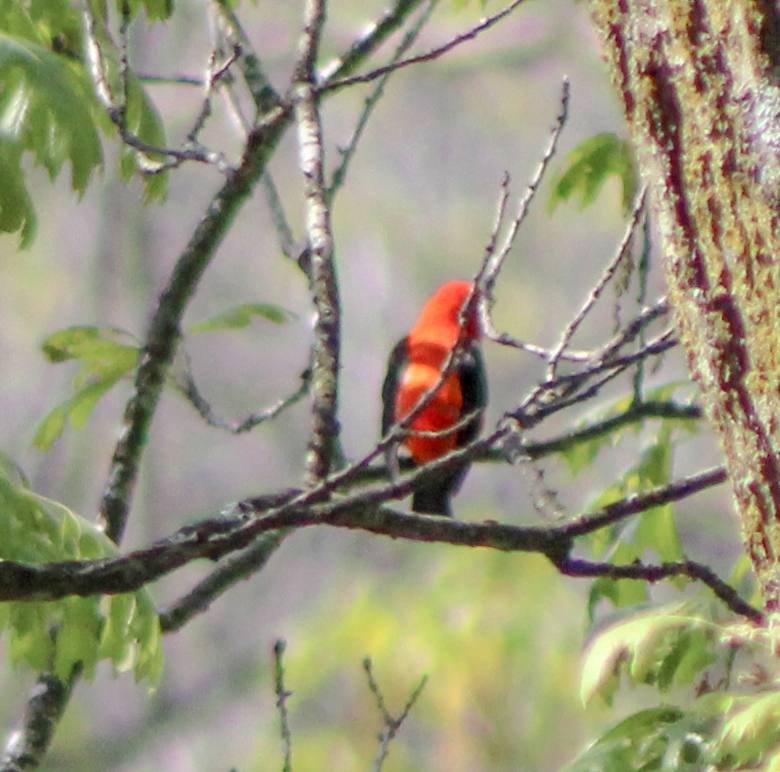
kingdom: Animalia
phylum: Chordata
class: Aves
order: Passeriformes
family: Cardinalidae
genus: Piranga
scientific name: Piranga olivacea
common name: Scarlet tanager
